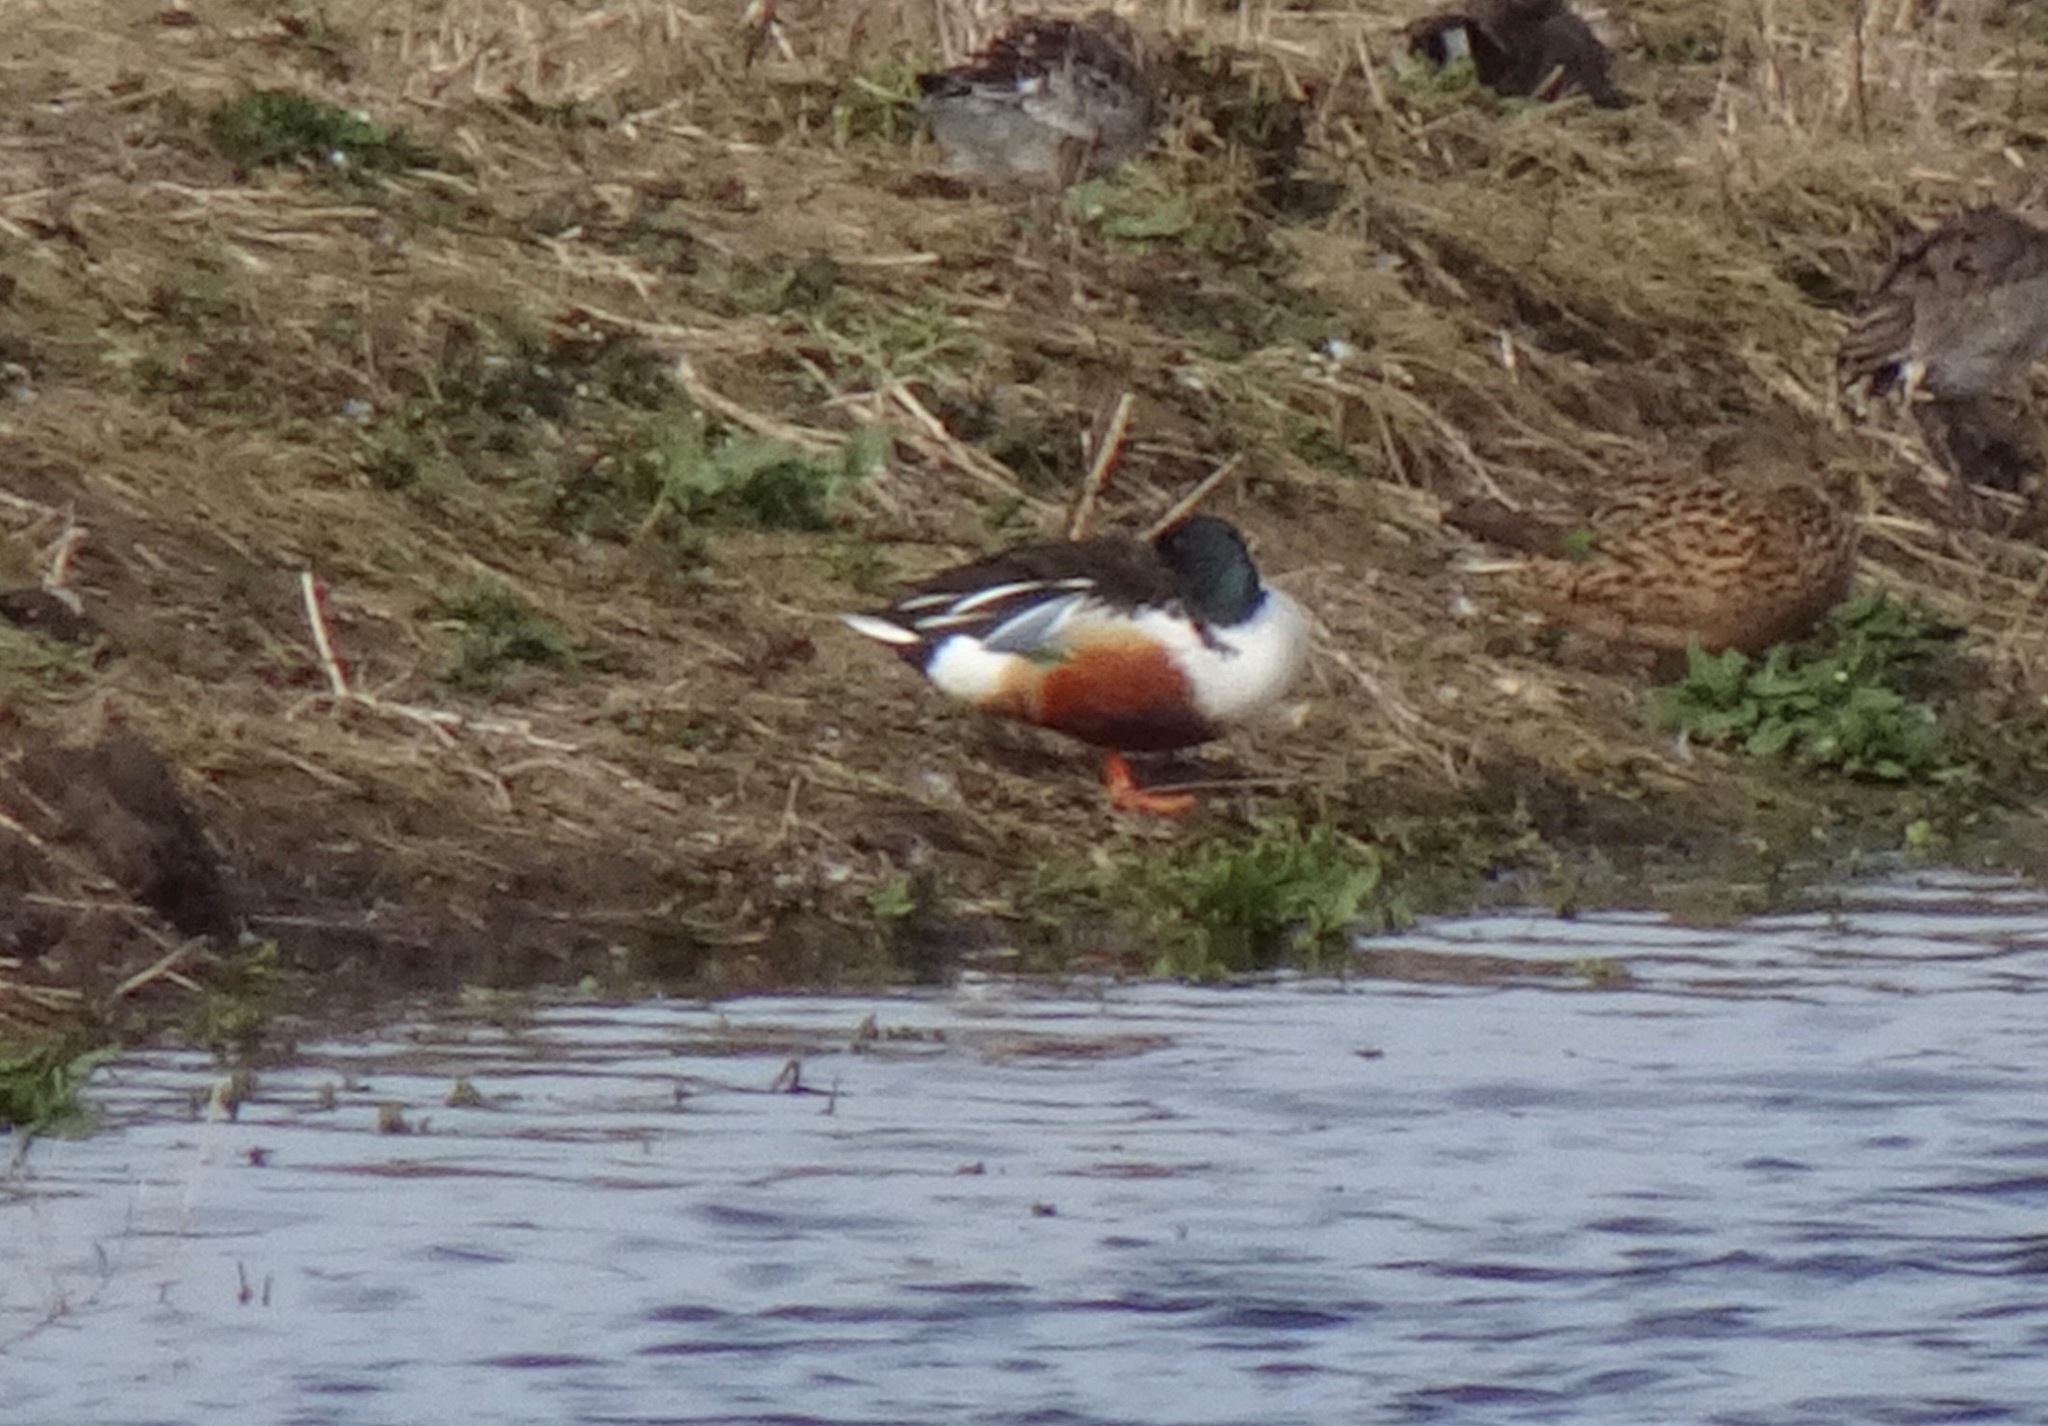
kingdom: Animalia
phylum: Chordata
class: Aves
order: Anseriformes
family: Anatidae
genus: Spatula
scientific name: Spatula clypeata
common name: Northern shoveler
